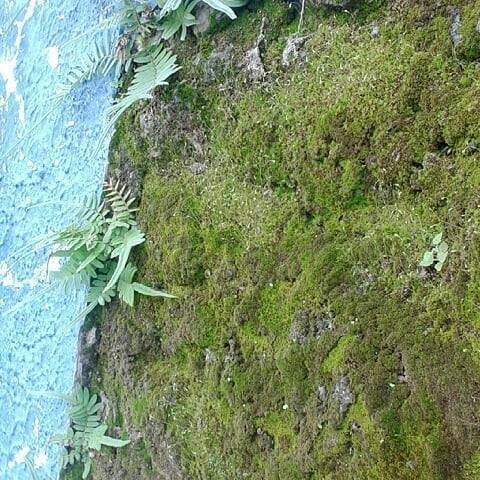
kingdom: Plantae
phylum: Tracheophyta
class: Polypodiopsida
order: Polypodiales
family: Pteridaceae
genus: Pteris
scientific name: Pteris vittata
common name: Ladder brake
